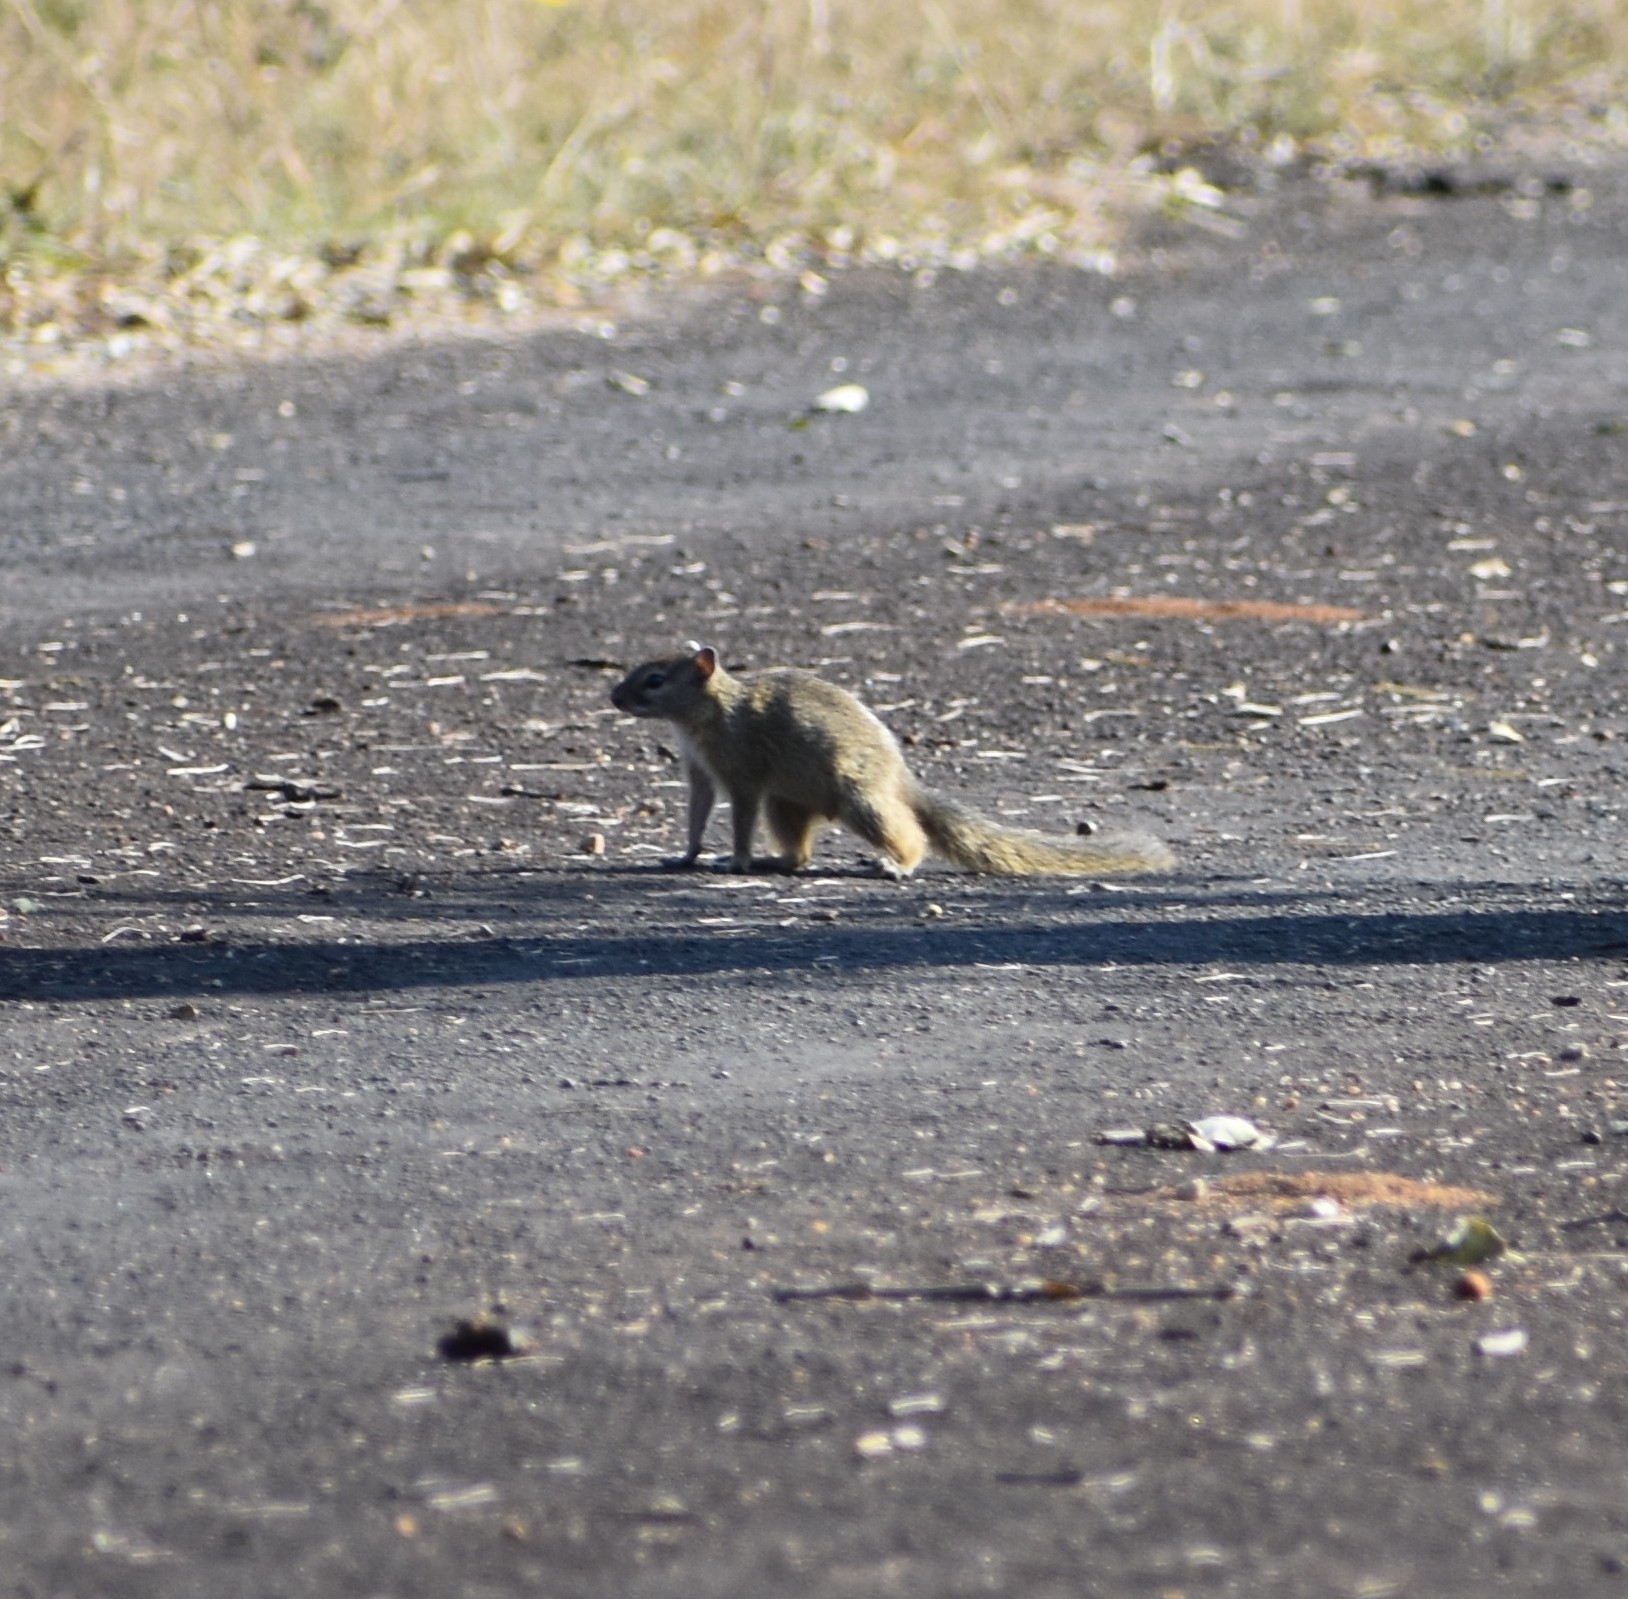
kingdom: Animalia
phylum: Chordata
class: Mammalia
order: Rodentia
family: Sciuridae
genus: Paraxerus
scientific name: Paraxerus cepapi
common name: Smith's bush squirrel
